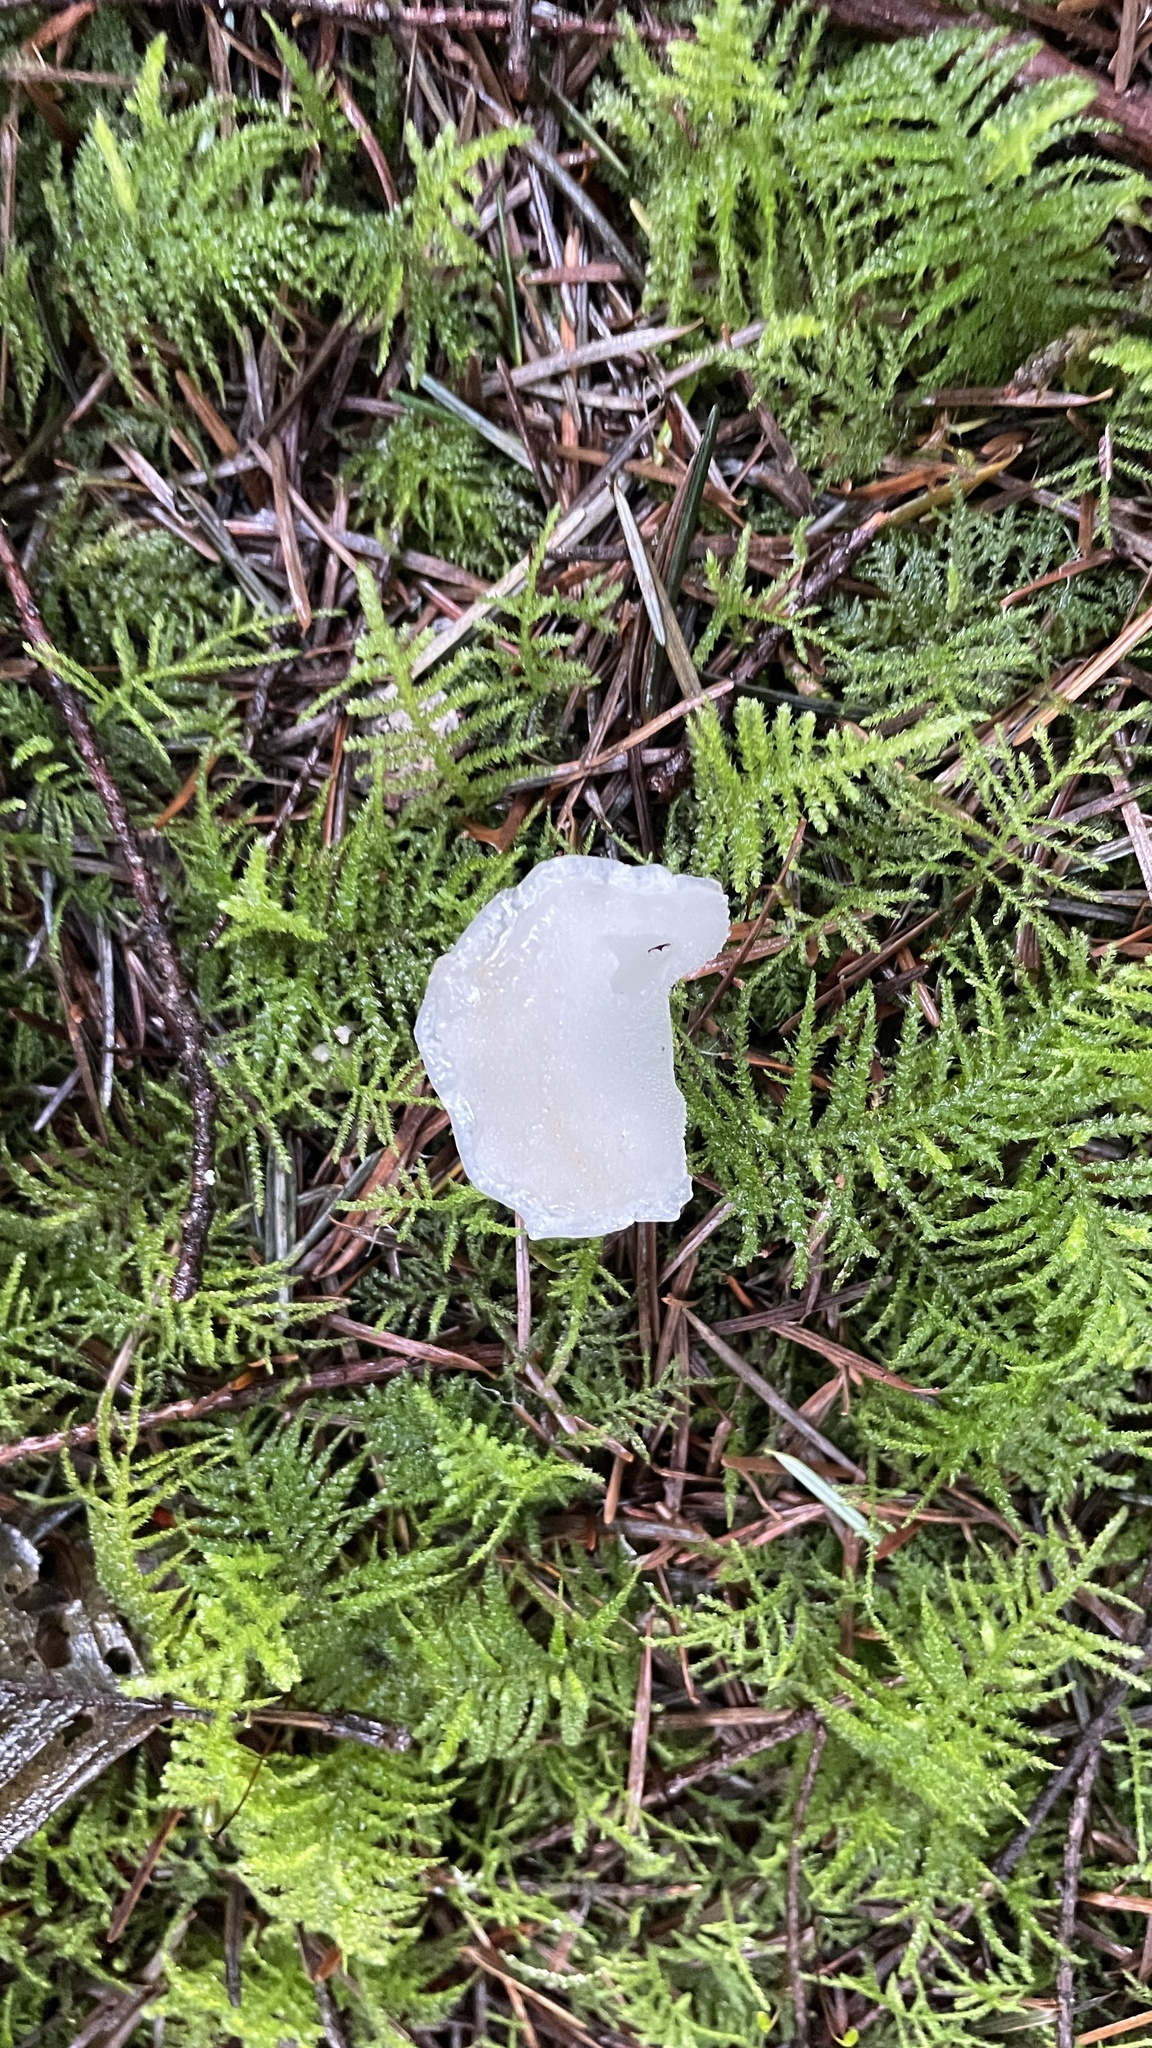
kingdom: Fungi
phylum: Basidiomycota
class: Agaricomycetes
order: Auriculariales
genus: Pseudohydnum
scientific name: Pseudohydnum gelatinosum
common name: Jelly tongue
